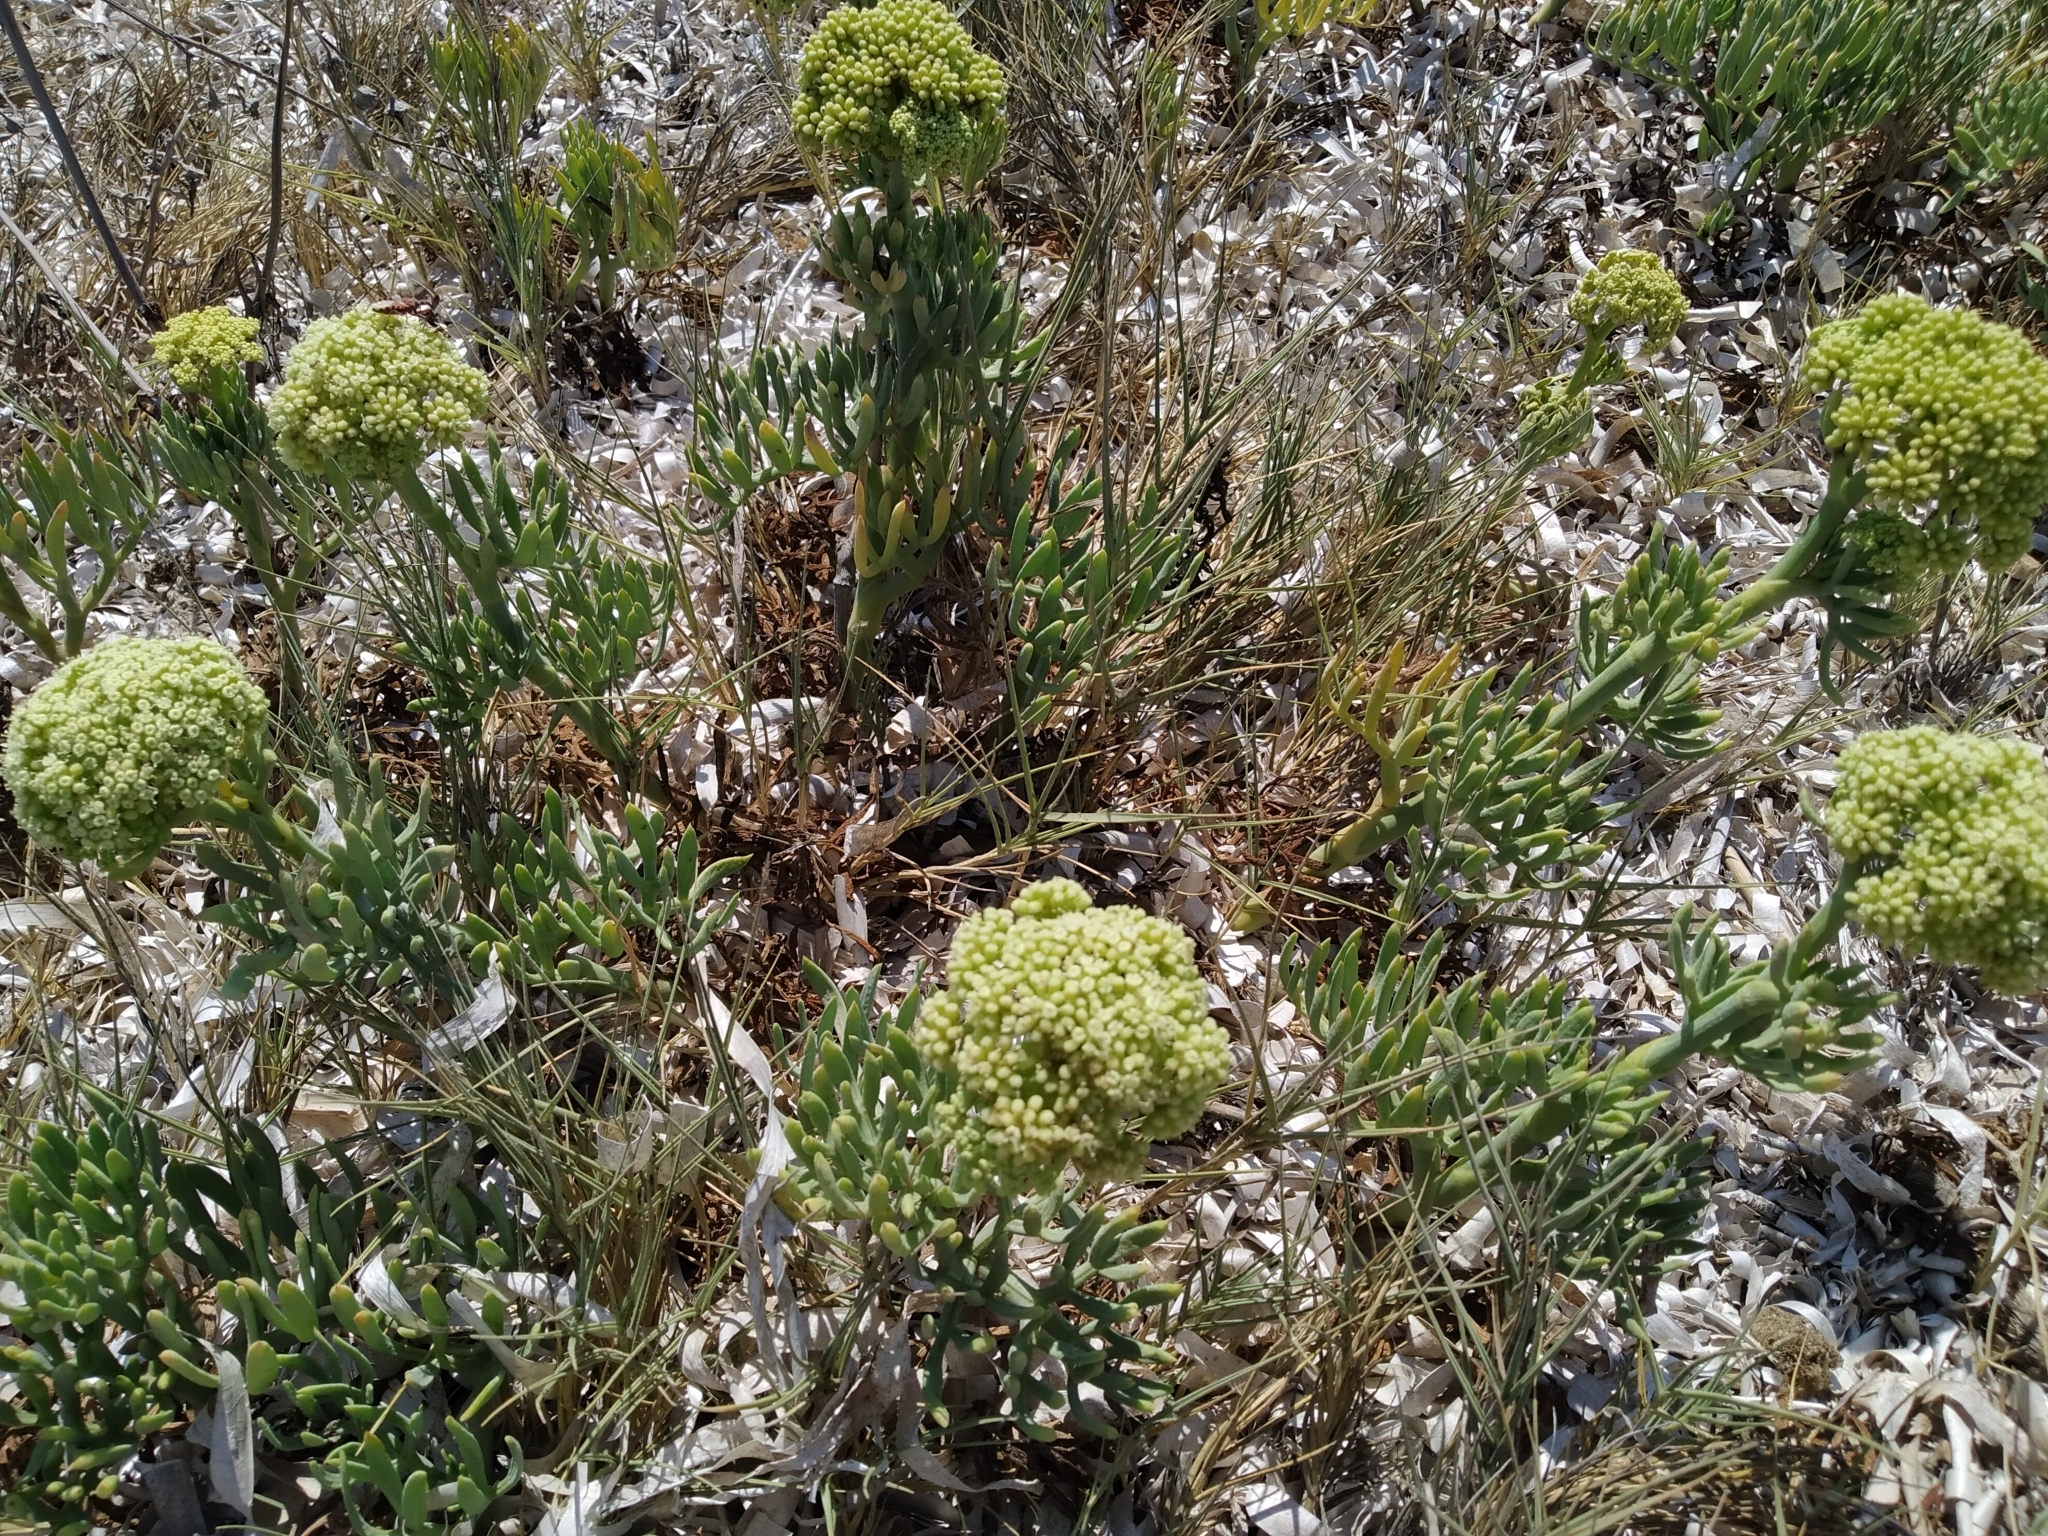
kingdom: Plantae
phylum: Tracheophyta
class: Magnoliopsida
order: Apiales
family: Apiaceae
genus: Crithmum
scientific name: Crithmum maritimum
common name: Rock samphire
